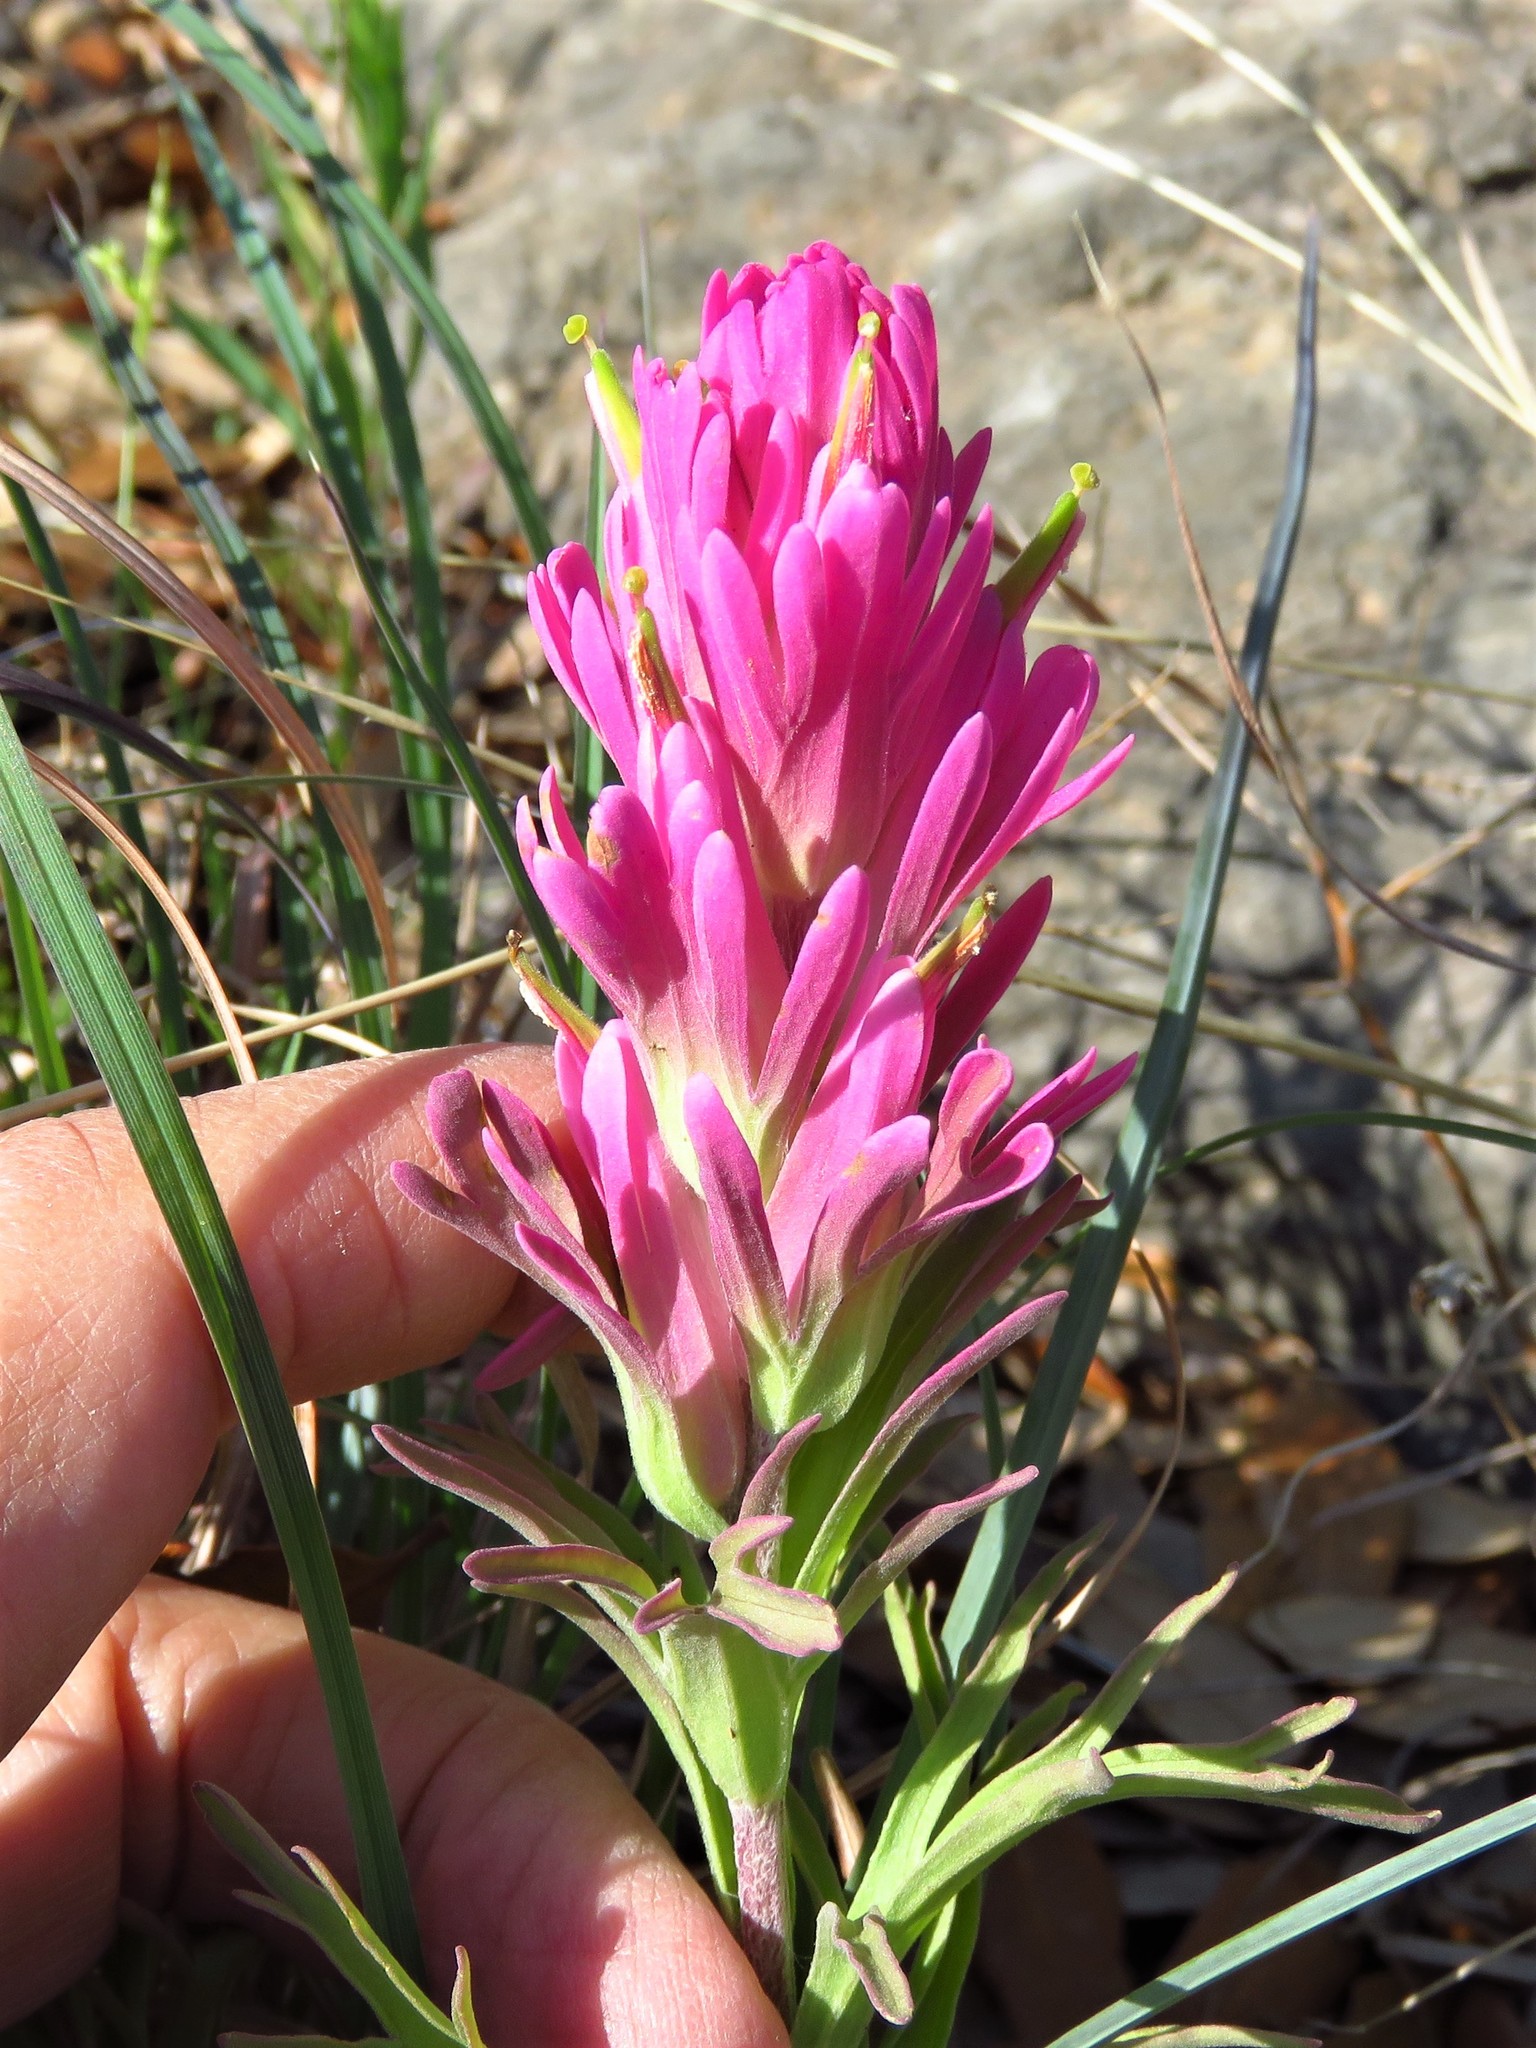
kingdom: Plantae
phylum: Tracheophyta
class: Magnoliopsida
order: Lamiales
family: Orobanchaceae
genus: Castilleja
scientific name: Castilleja purpurea
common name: Plains paintbrush
